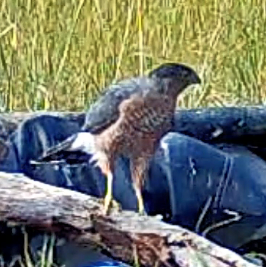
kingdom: Animalia
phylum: Chordata
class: Aves
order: Accipitriformes
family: Accipitridae
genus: Accipiter
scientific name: Accipiter cooperii
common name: Cooper's hawk
